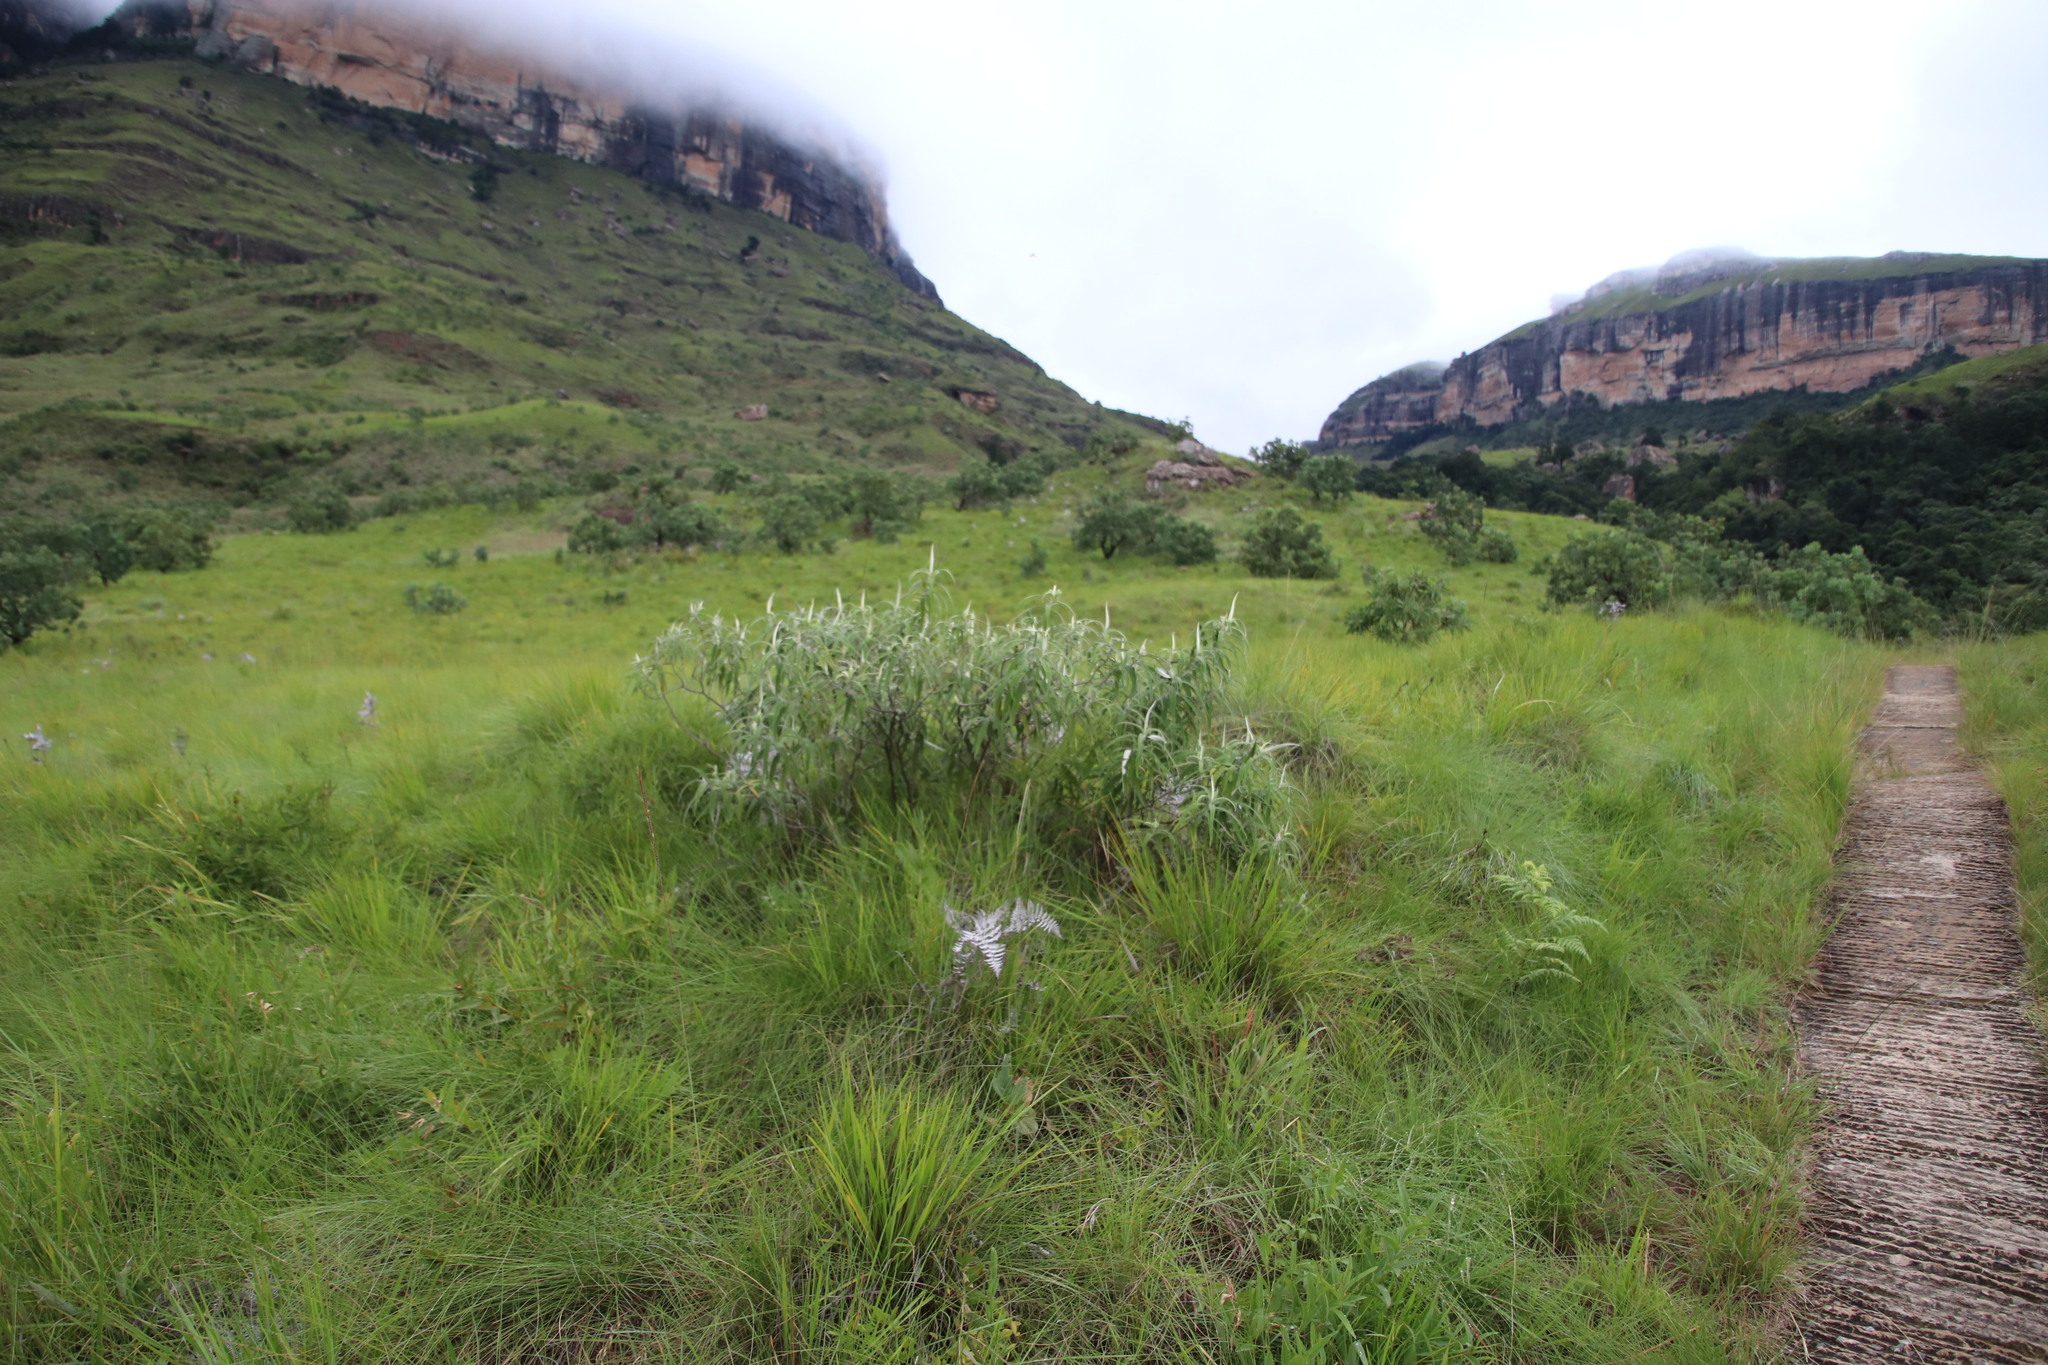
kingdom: Plantae
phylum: Tracheophyta
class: Magnoliopsida
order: Lamiales
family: Scrophulariaceae
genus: Buddleja
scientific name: Buddleja salviifolia
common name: Sagewood
